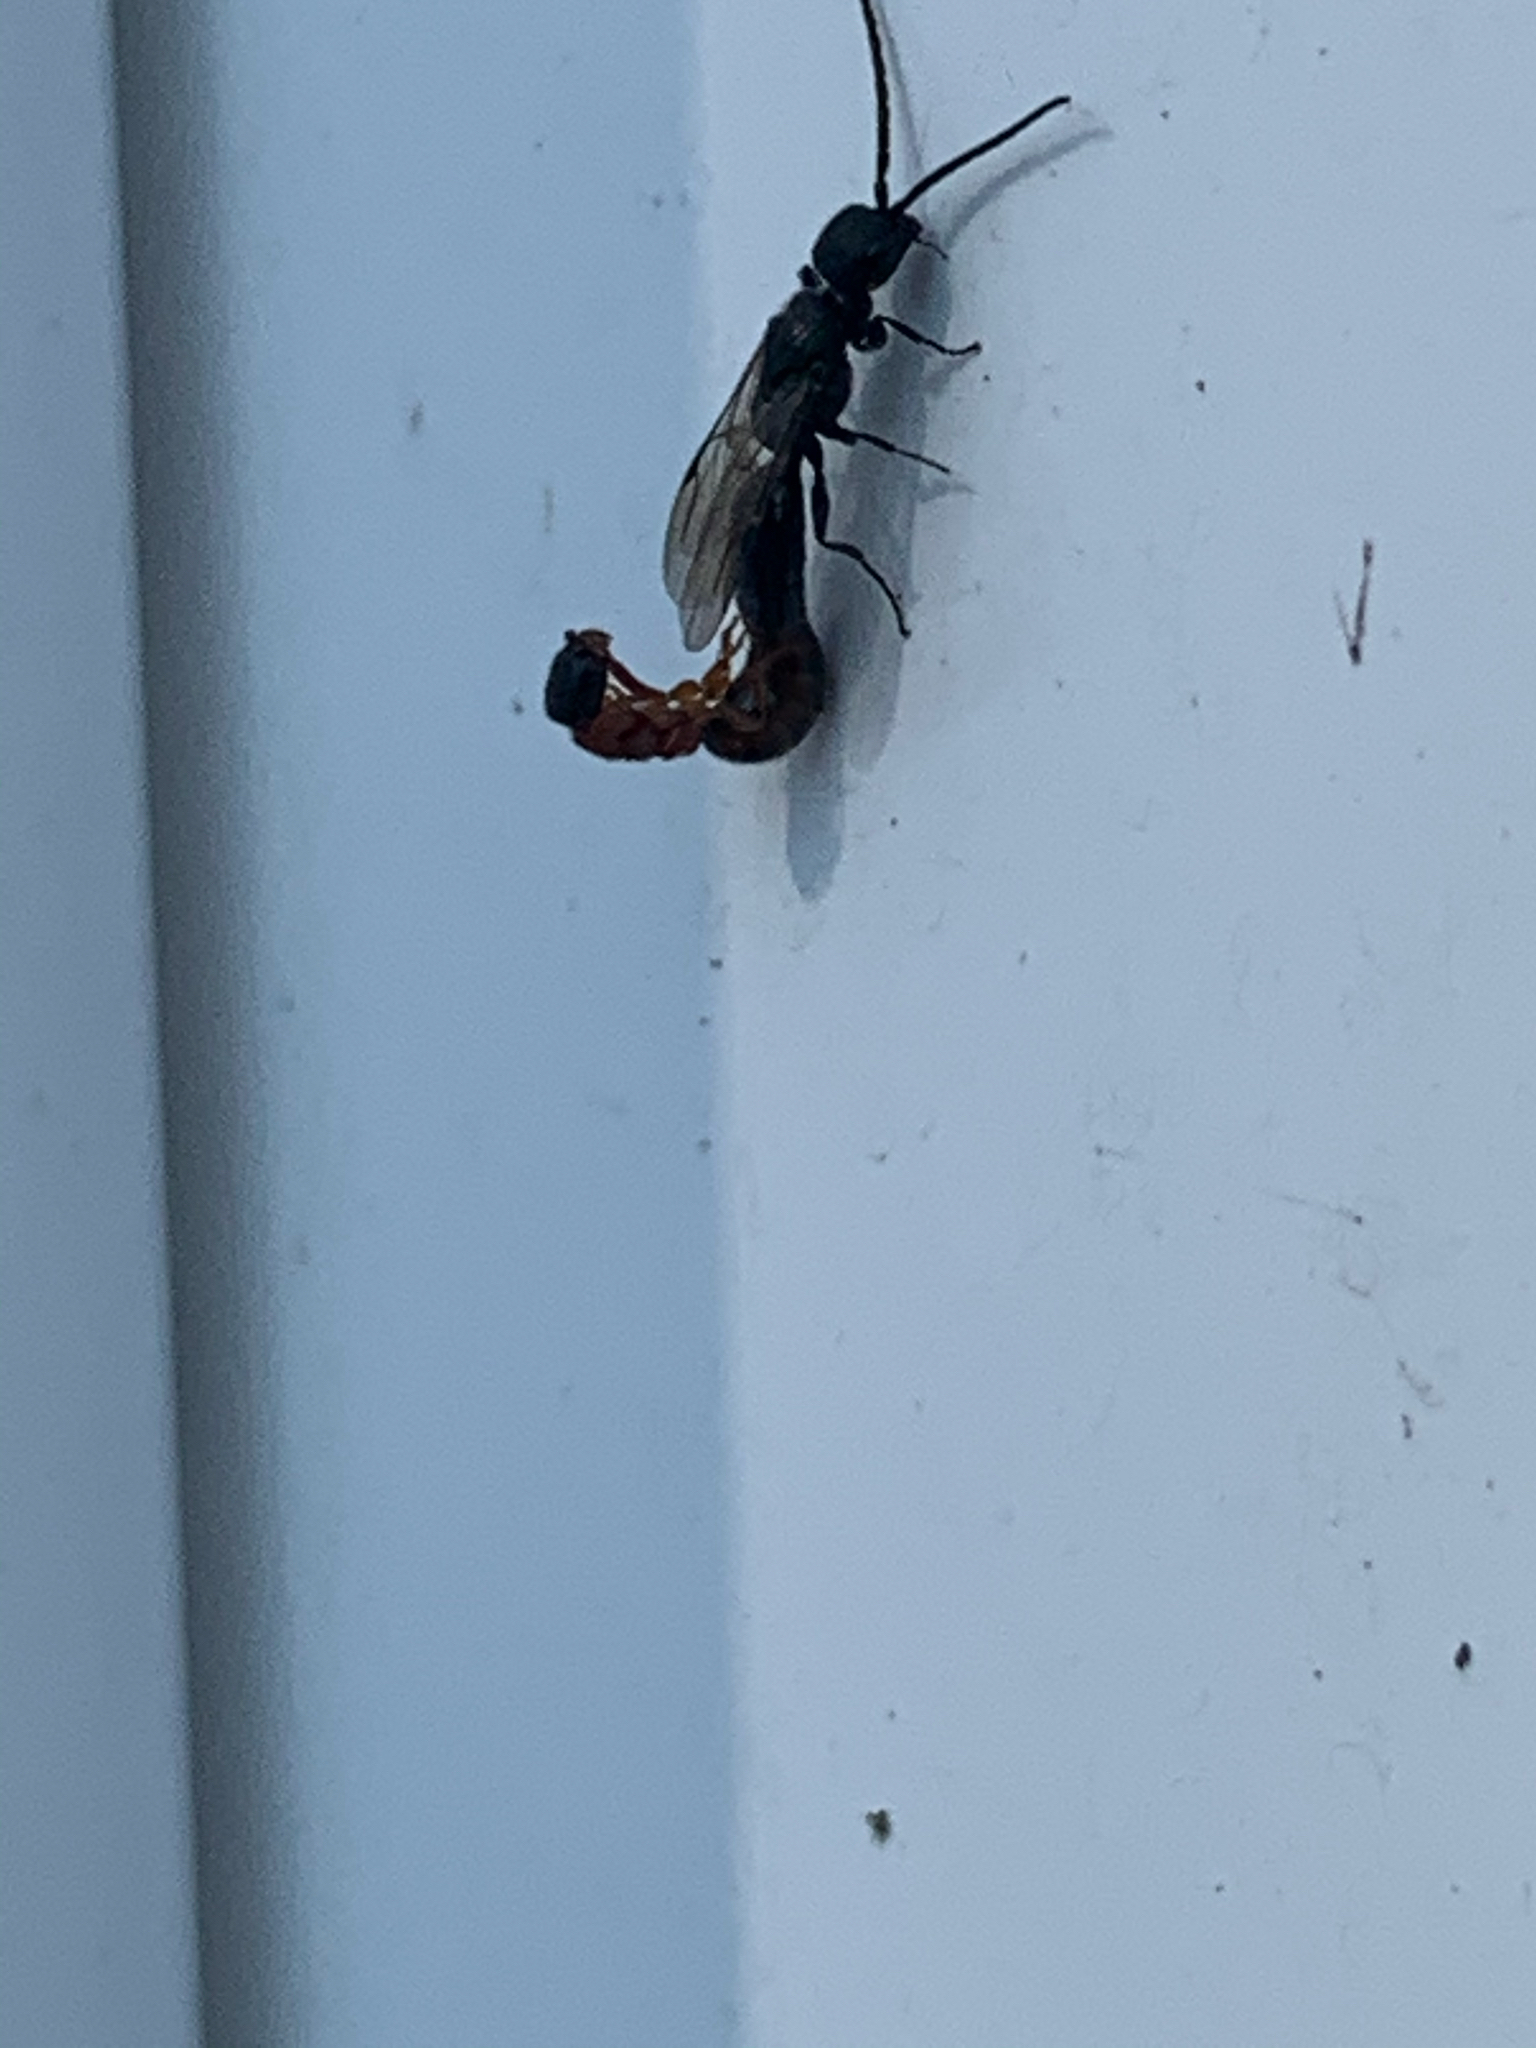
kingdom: Animalia
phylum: Arthropoda
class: Insecta
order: Hymenoptera
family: Mutillidae
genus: Myrmosa
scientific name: Myrmosa unicolor
